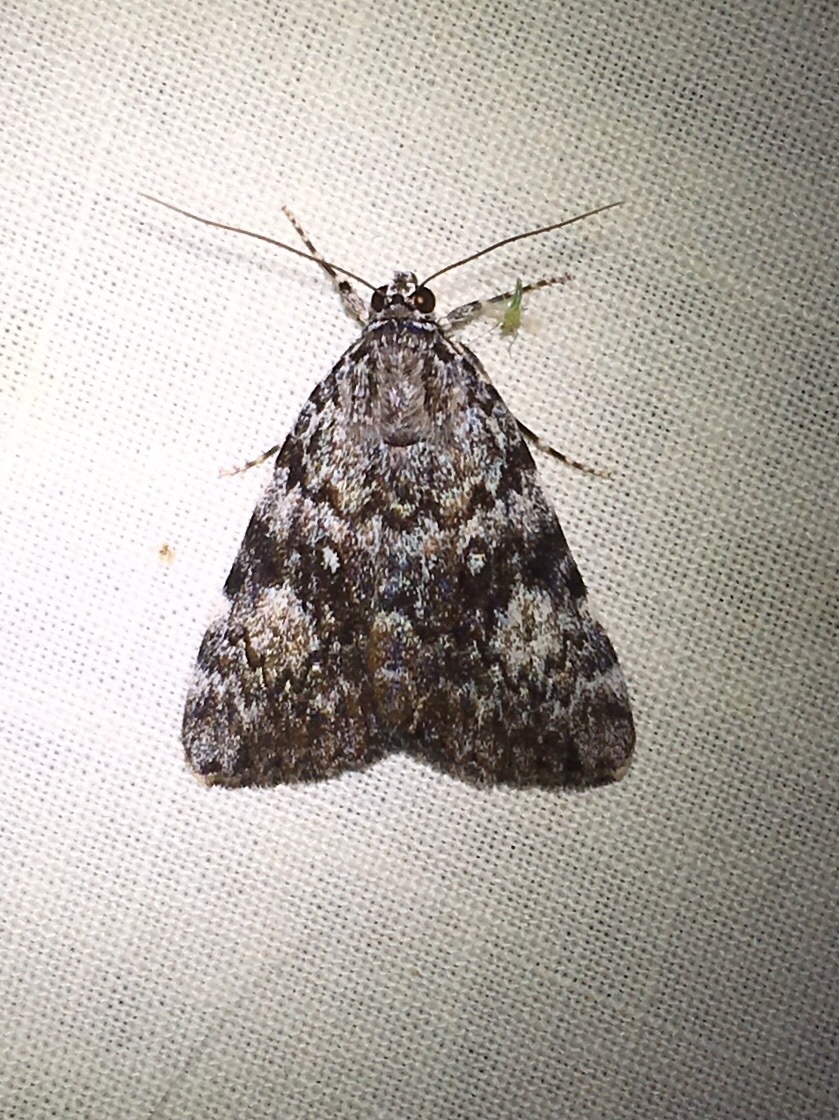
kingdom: Animalia
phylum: Arthropoda
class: Insecta
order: Lepidoptera
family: Erebidae
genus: Catocala
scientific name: Catocala lineella
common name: Little lined underwing
